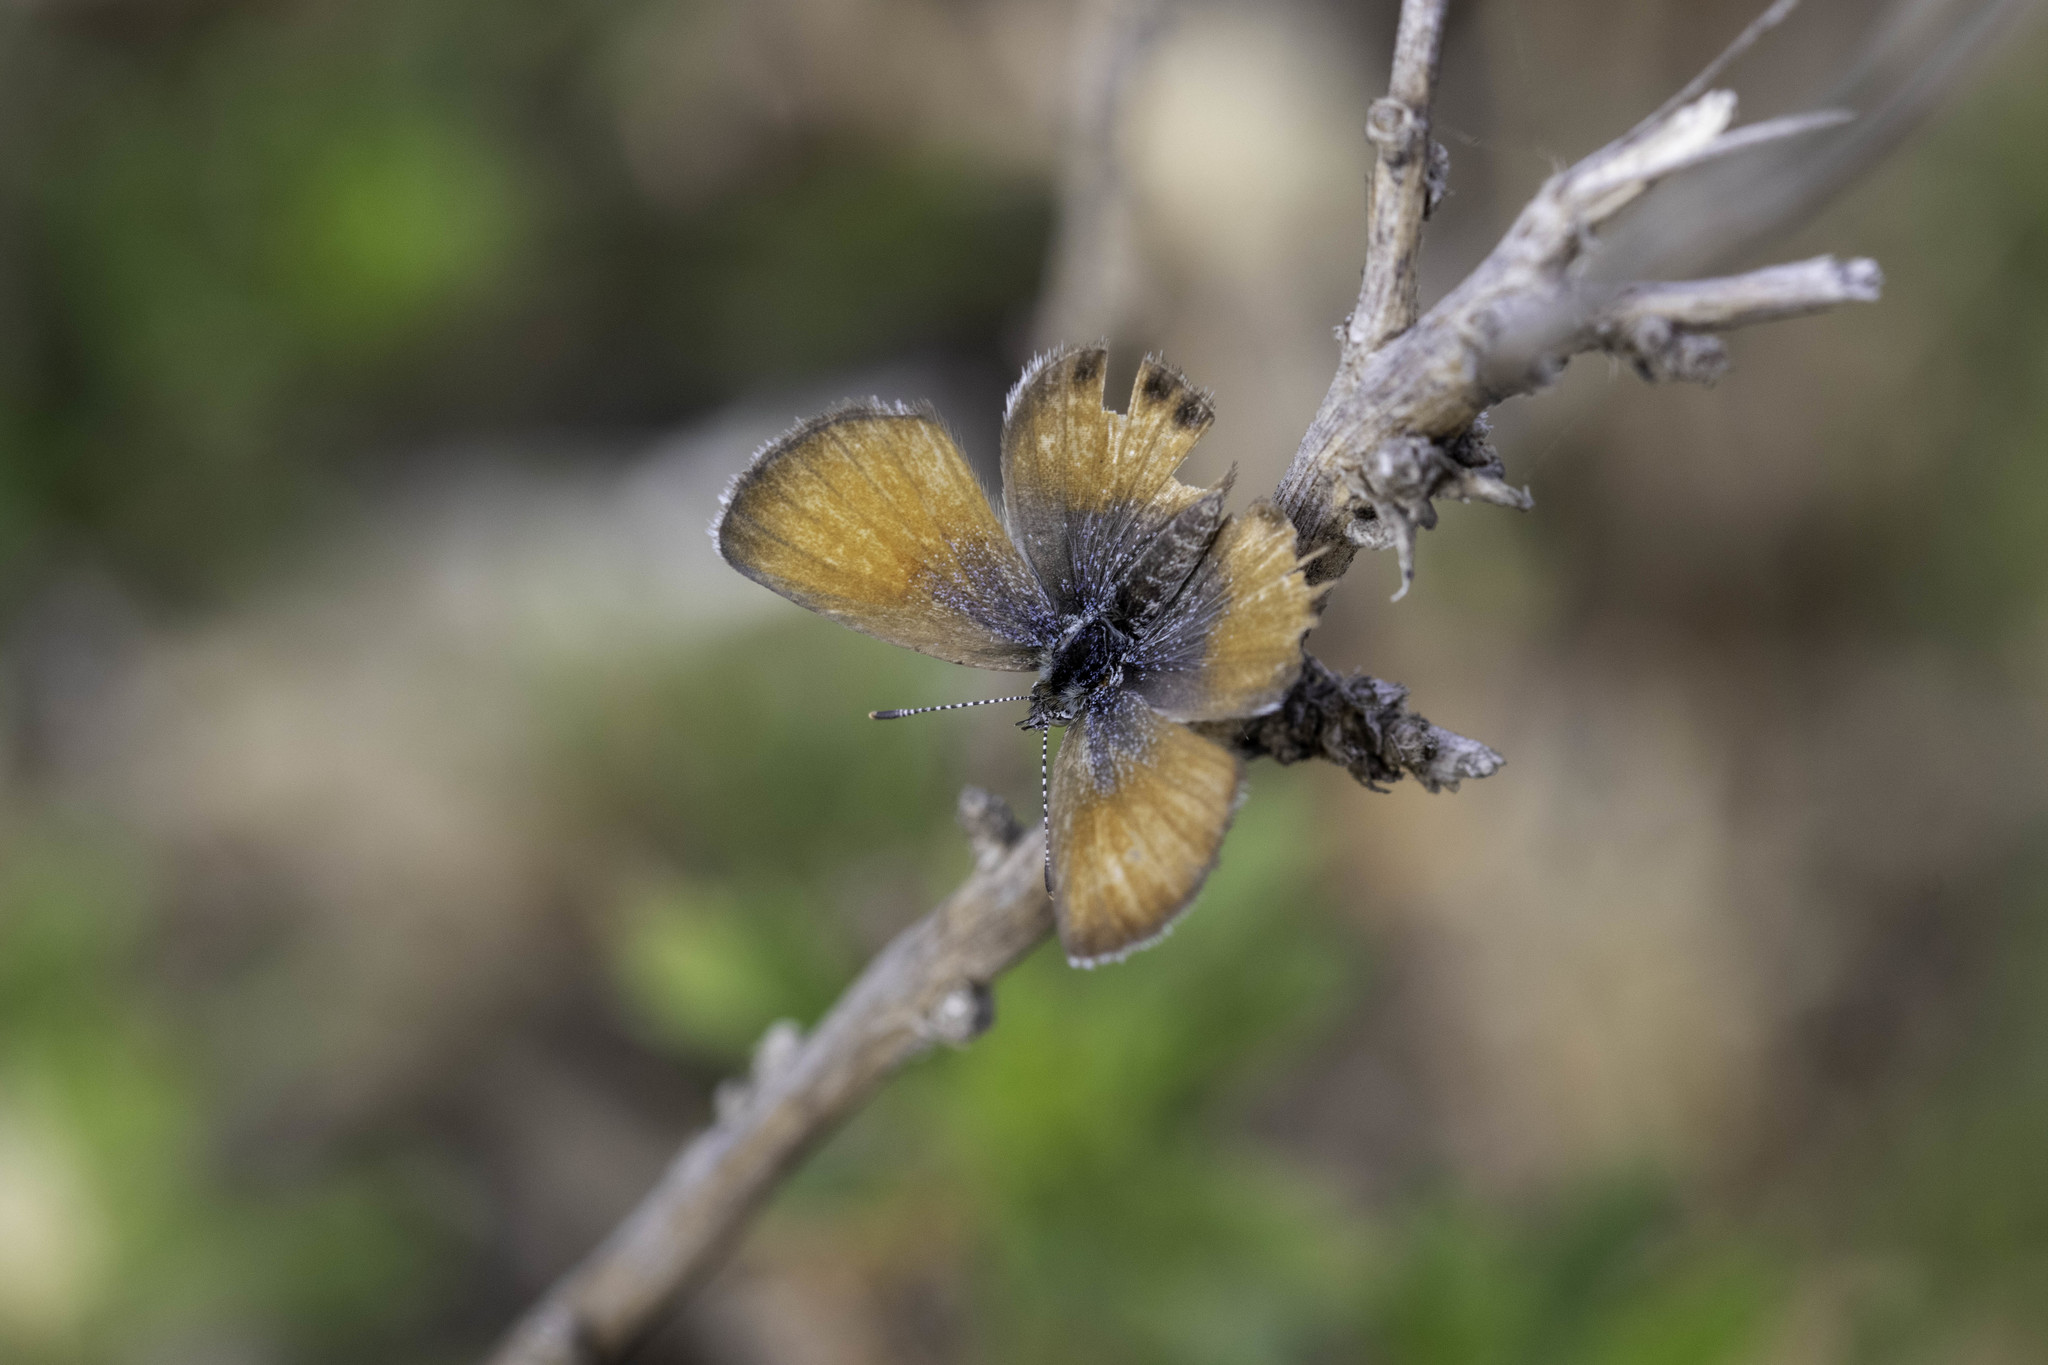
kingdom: Animalia
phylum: Arthropoda
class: Insecta
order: Lepidoptera
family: Lycaenidae
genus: Brephidium
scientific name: Brephidium exilis
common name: Pygmy blue
